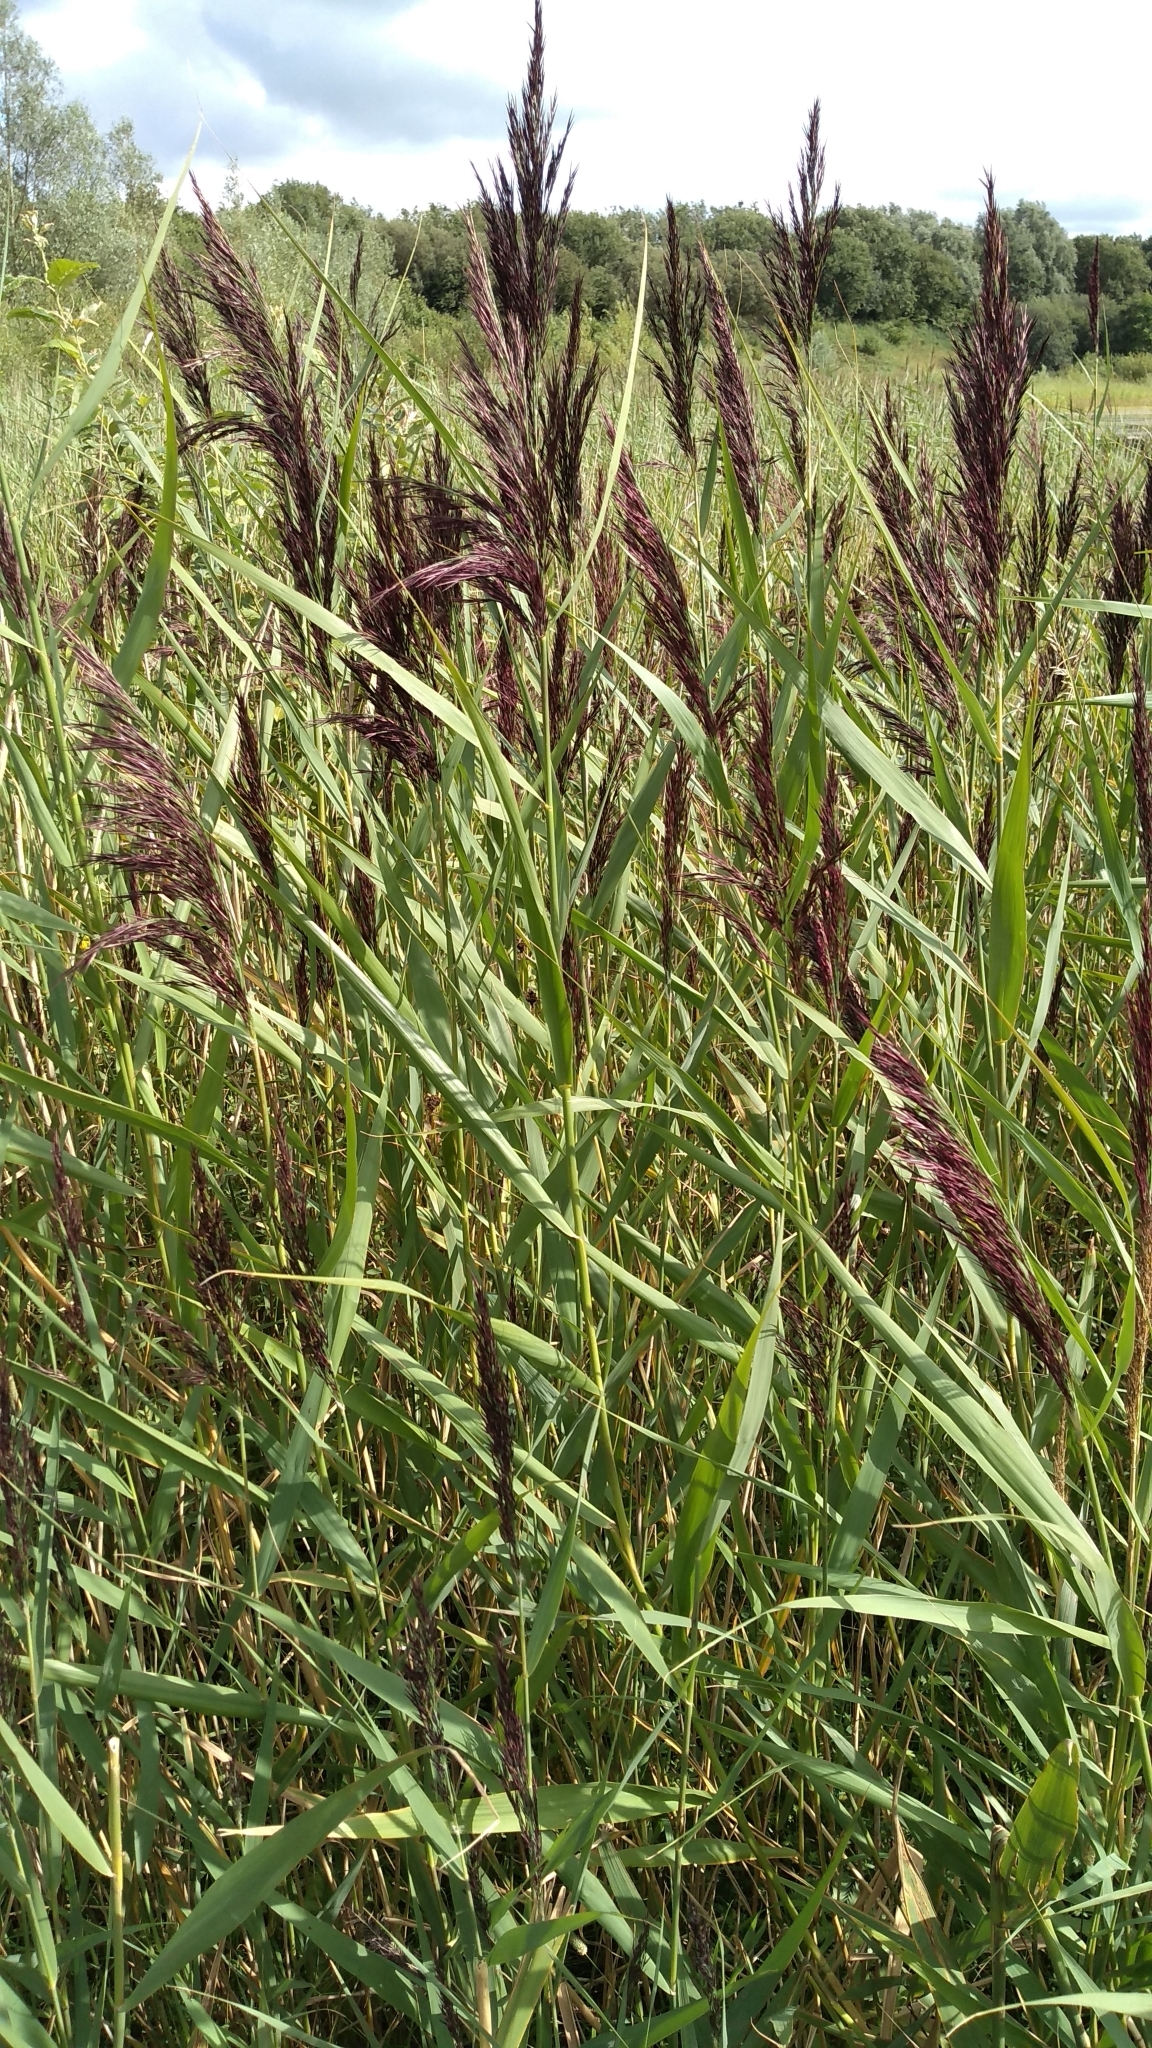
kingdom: Plantae
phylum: Tracheophyta
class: Liliopsida
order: Poales
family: Poaceae
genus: Phragmites
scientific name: Phragmites australis
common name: Common reed
